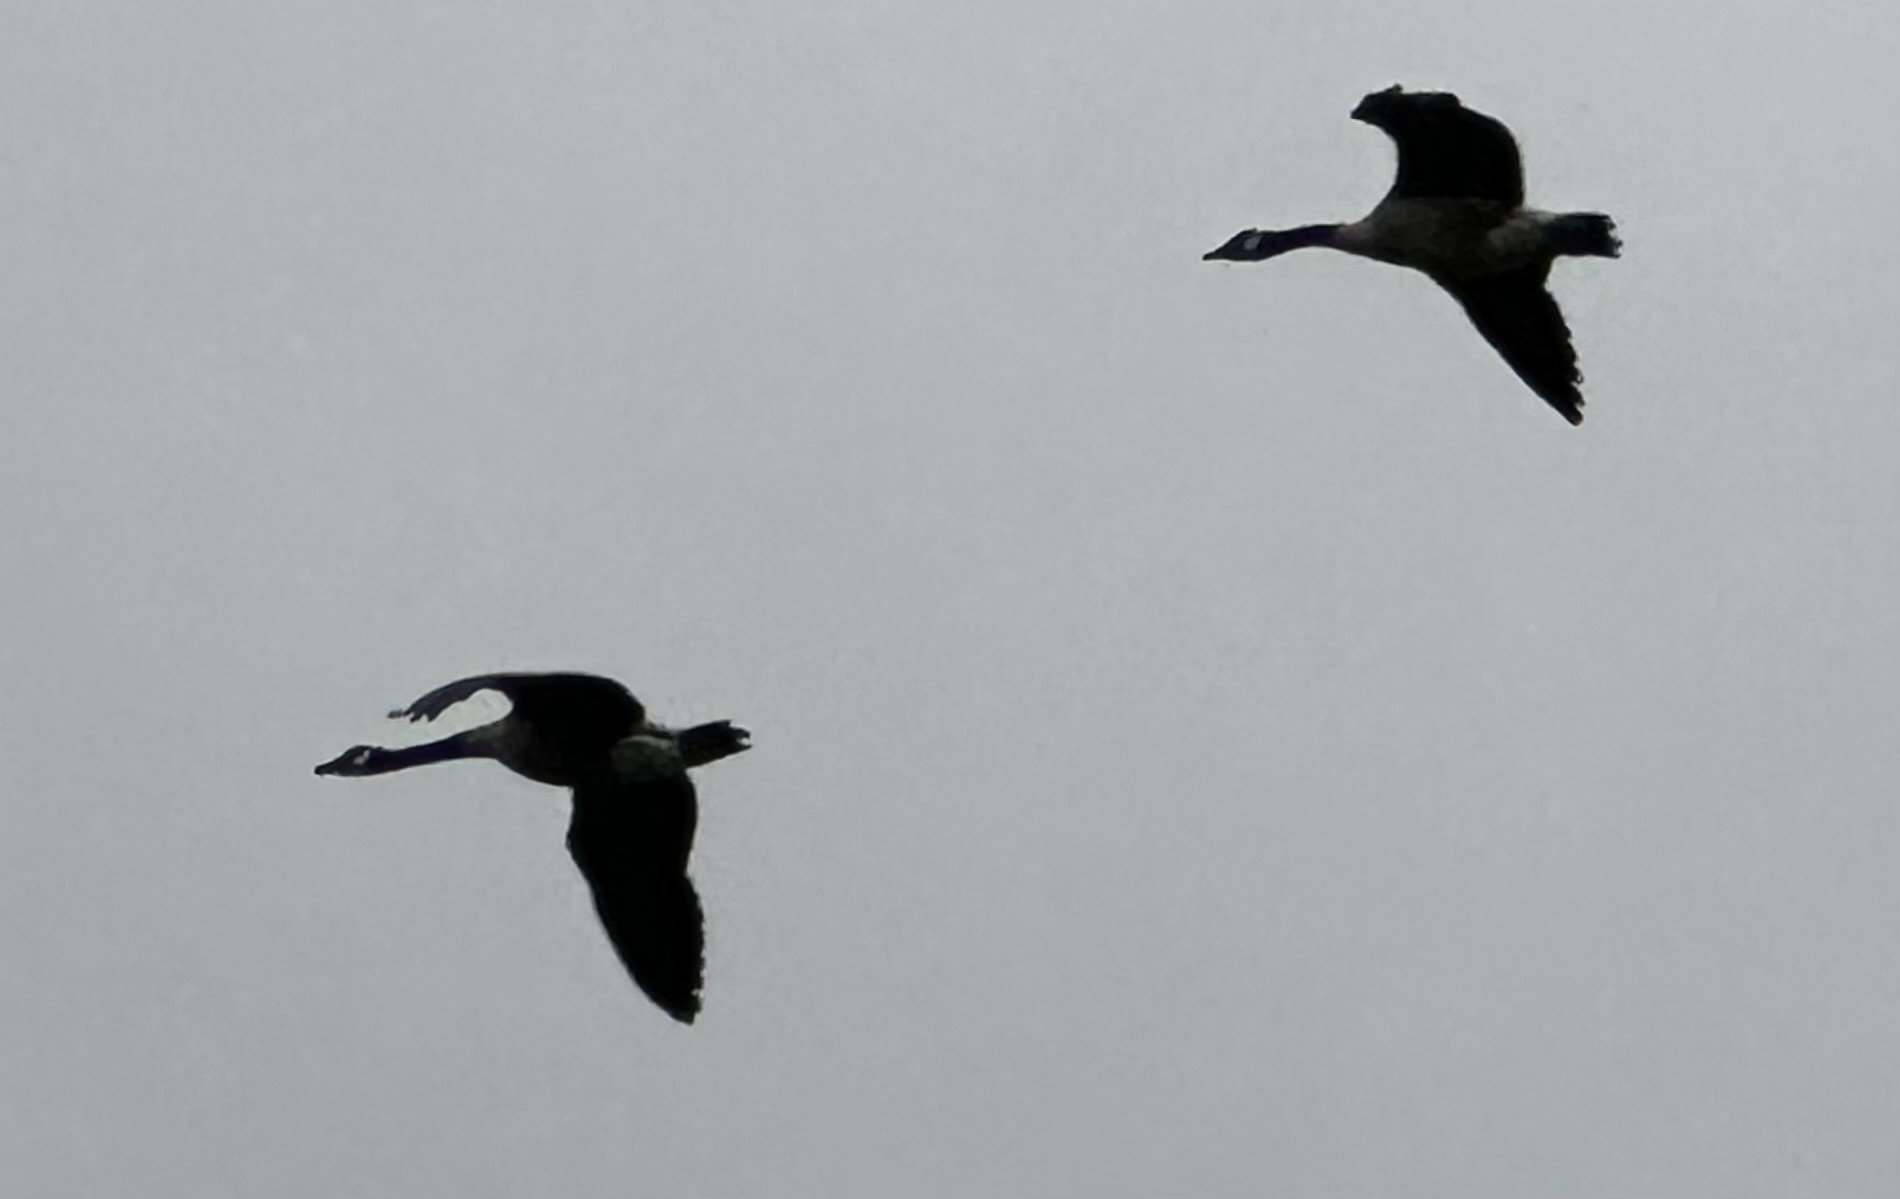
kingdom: Animalia
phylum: Chordata
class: Aves
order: Anseriformes
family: Anatidae
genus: Branta
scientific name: Branta canadensis
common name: Canada goose
